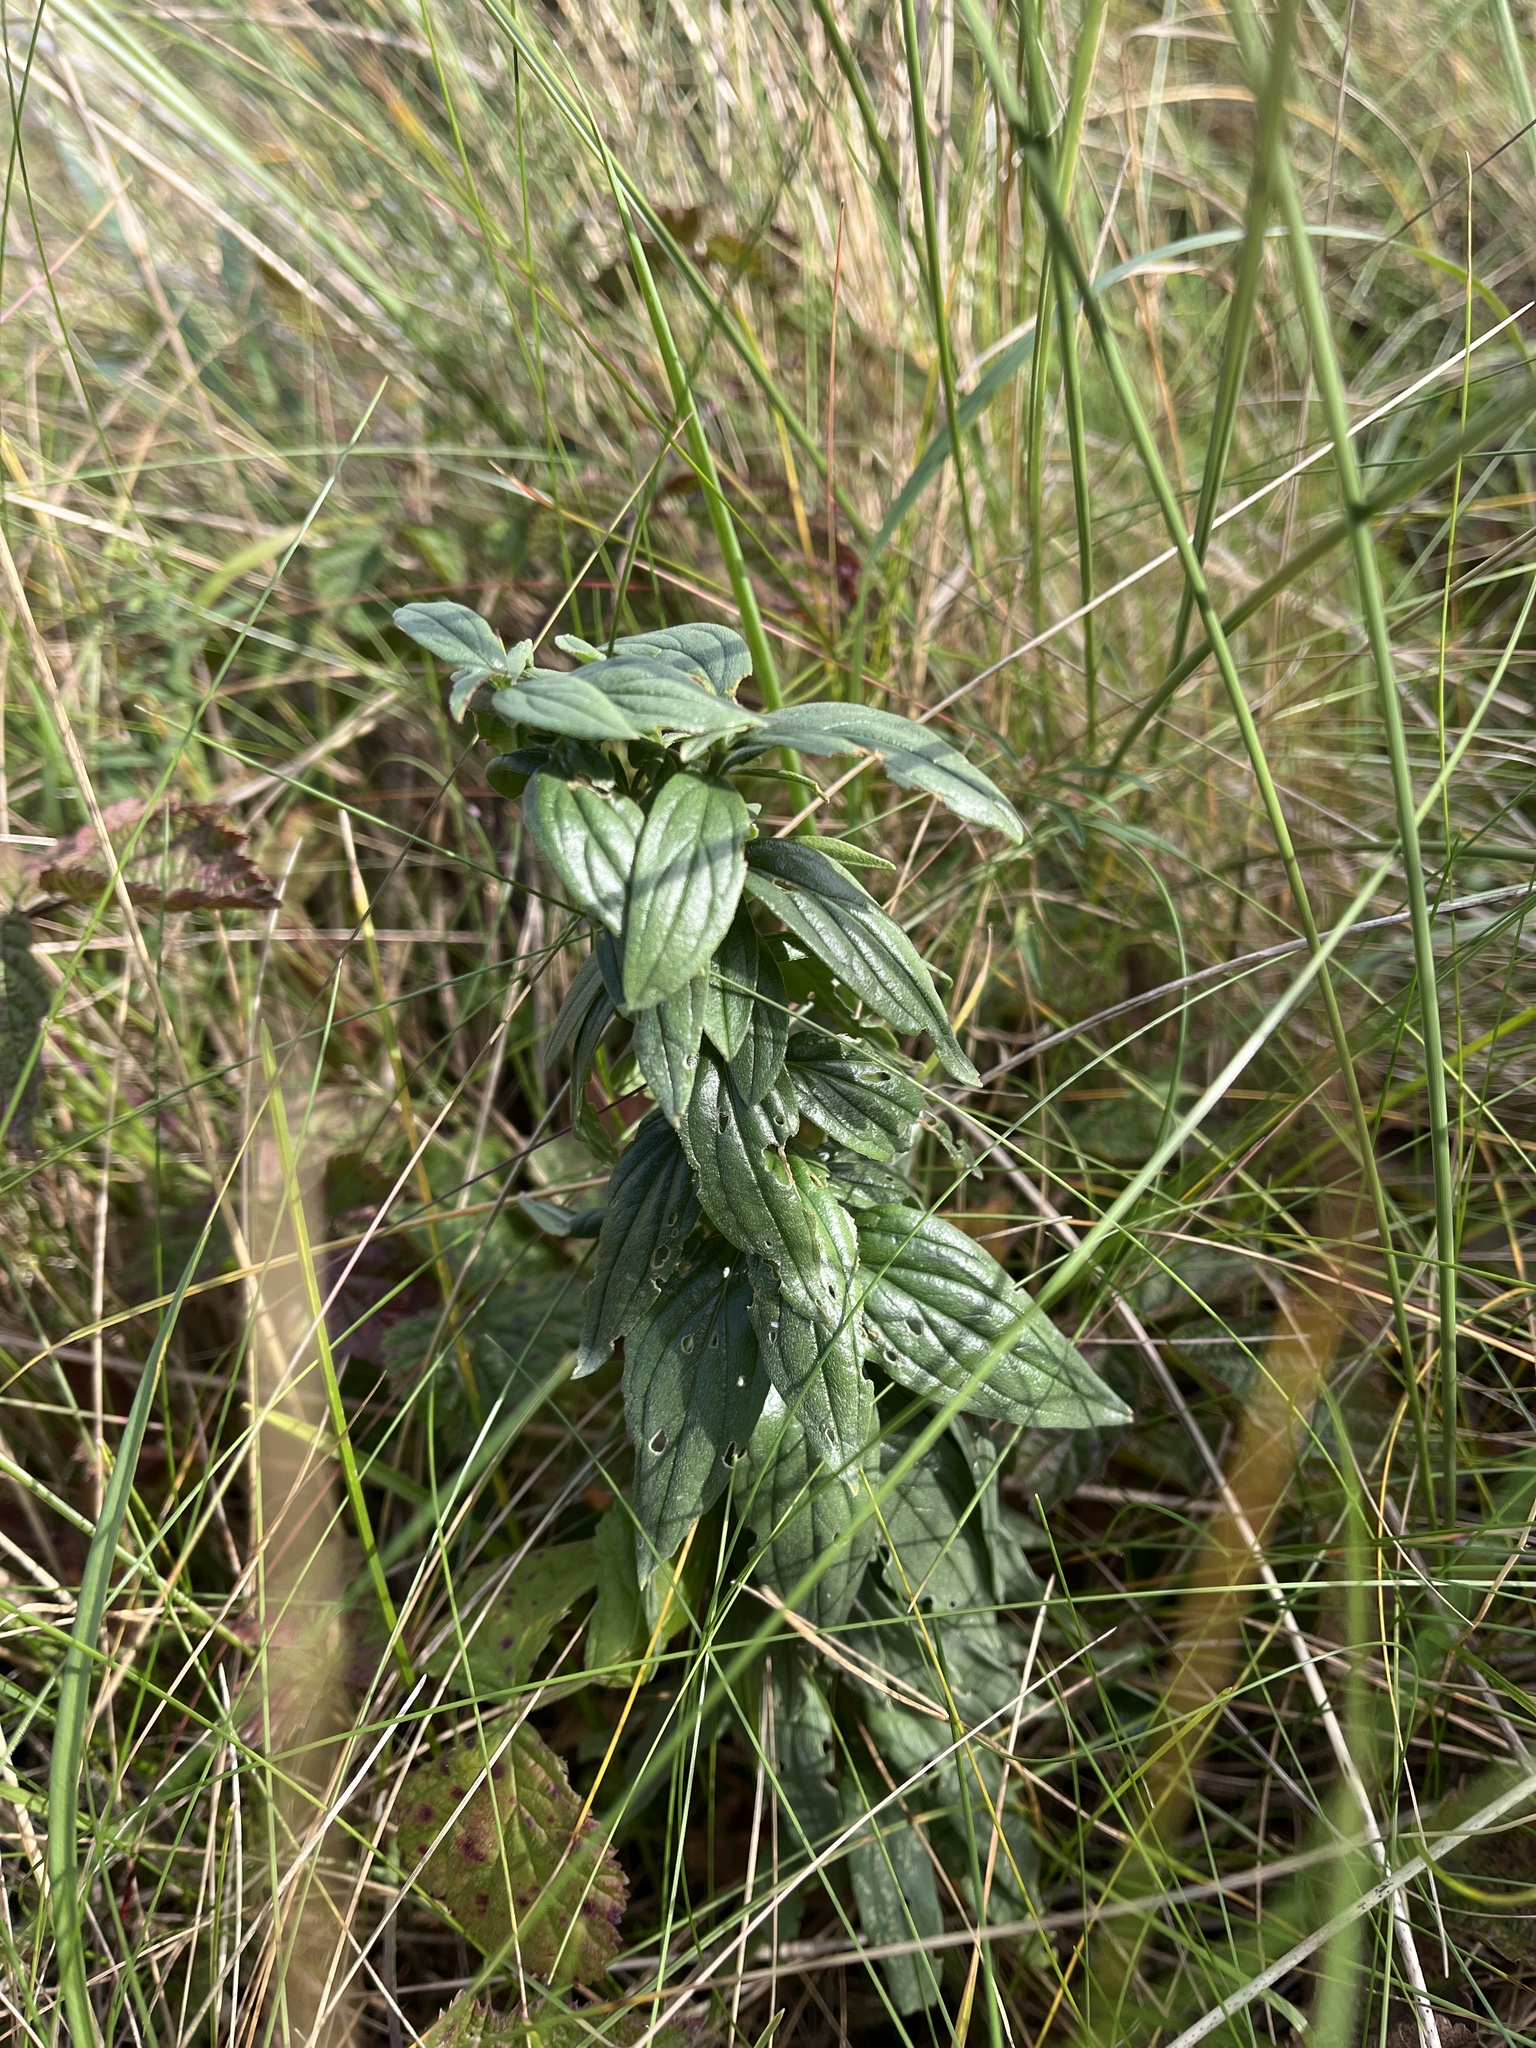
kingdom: Plantae
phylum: Tracheophyta
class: Magnoliopsida
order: Boraginales
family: Boraginaceae
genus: Lithospermum
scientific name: Lithospermum officinale
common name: Common gromwell
